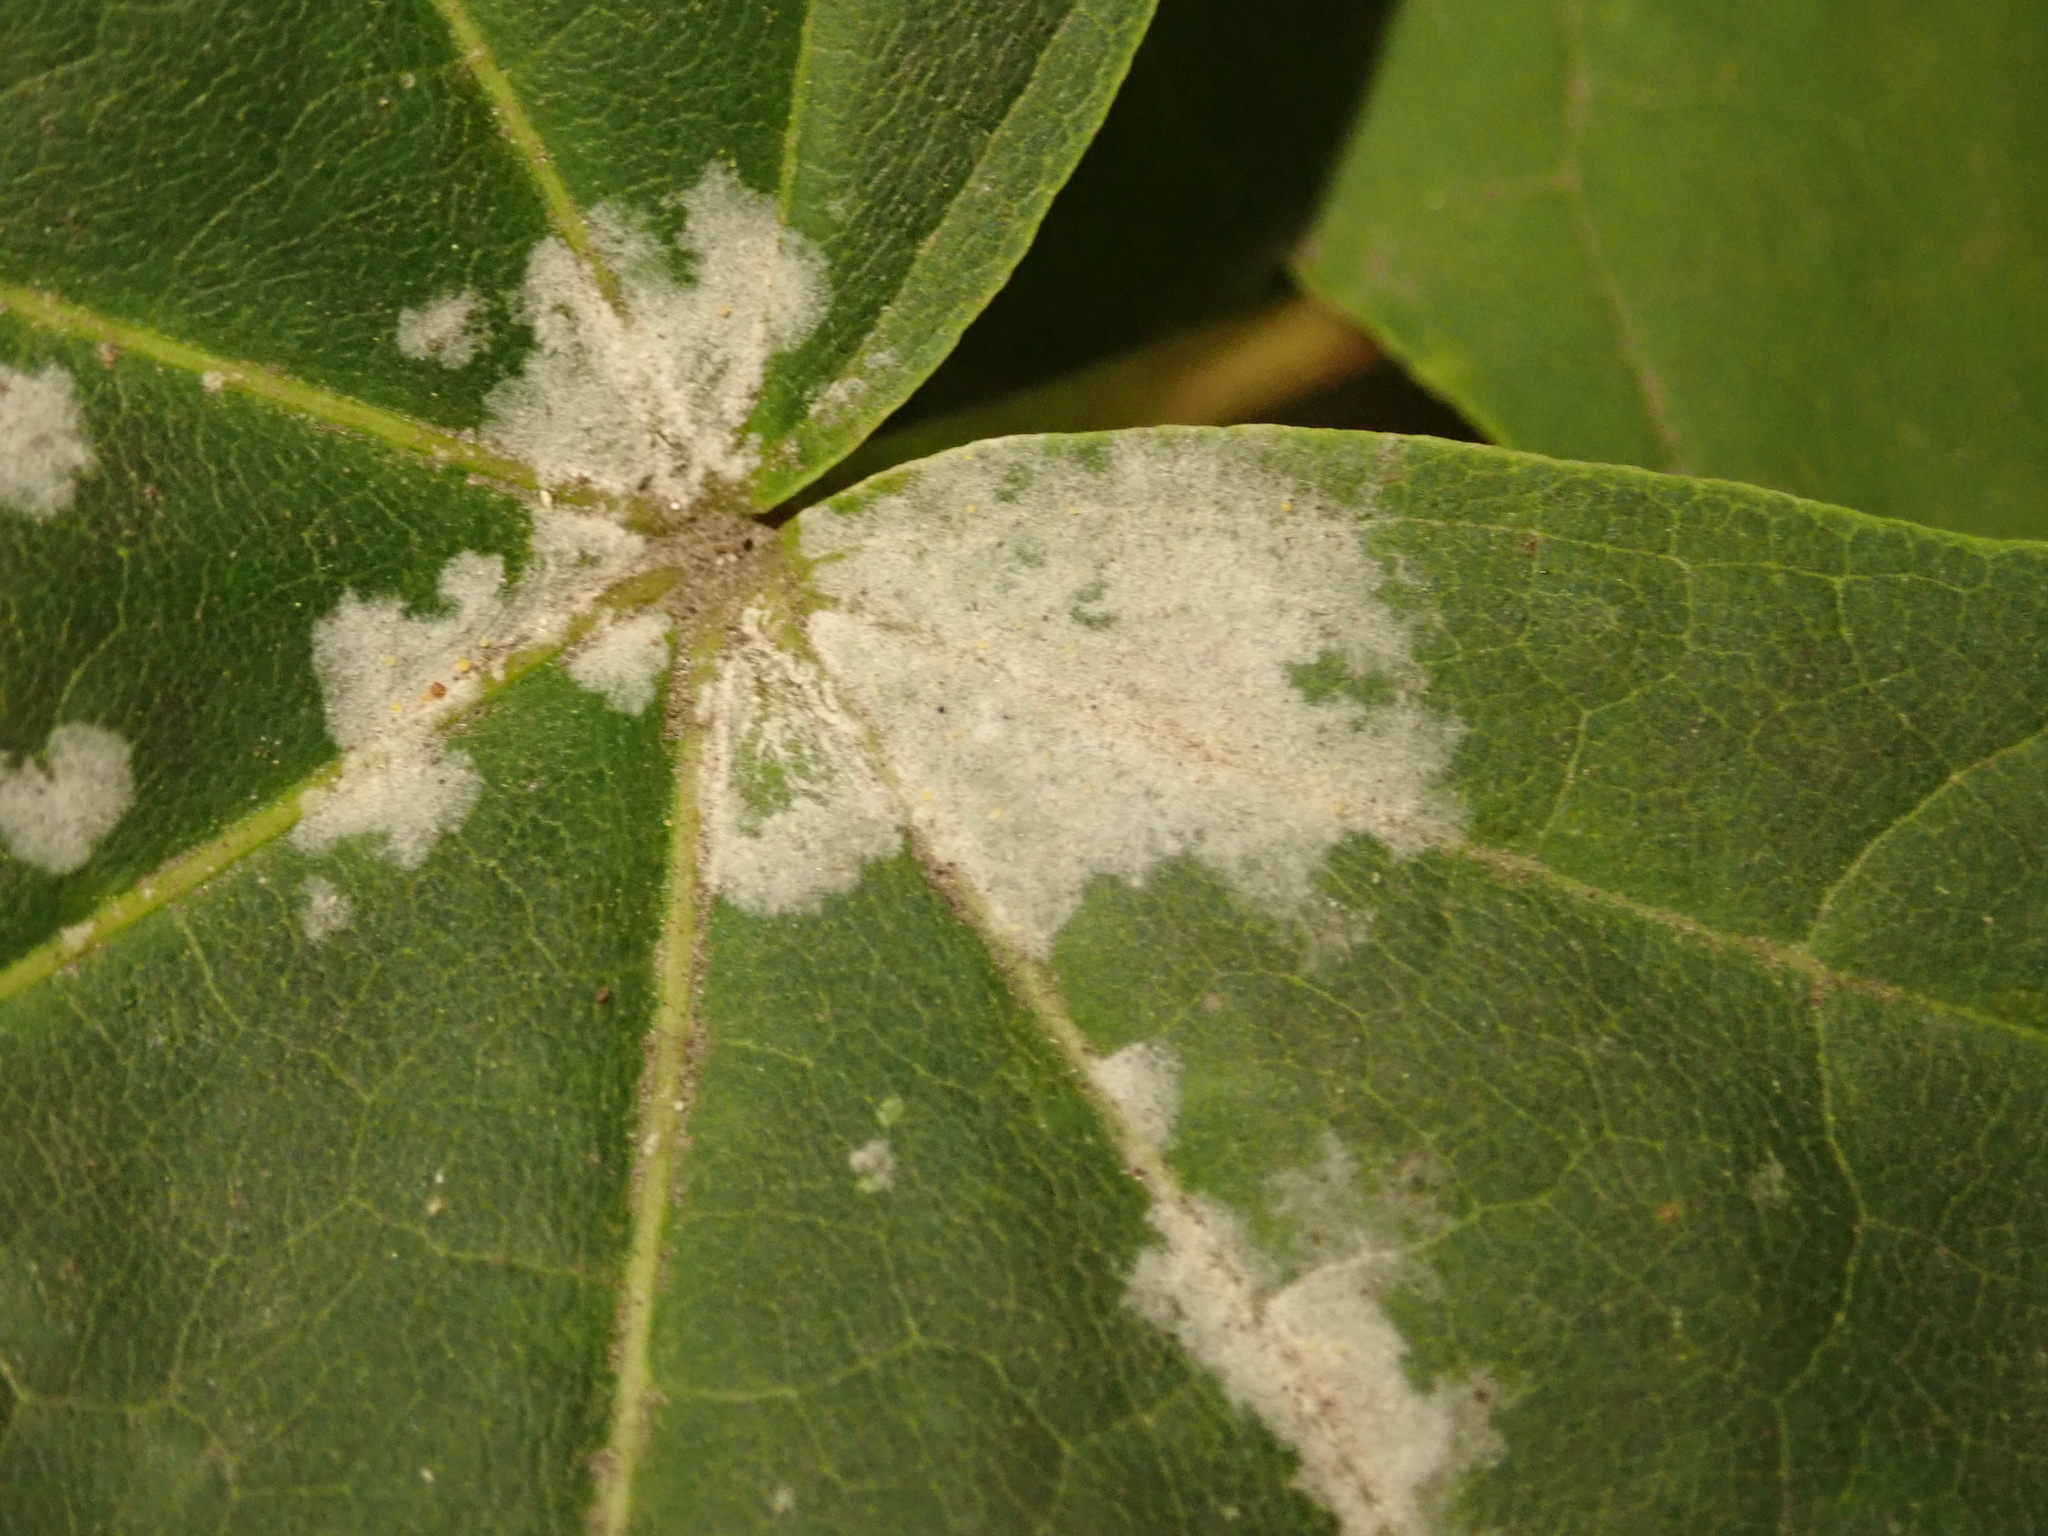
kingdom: Fungi
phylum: Ascomycota
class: Leotiomycetes
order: Helotiales
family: Erysiphaceae
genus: Sawadaea
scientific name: Sawadaea bicornis
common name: Maple mildew
